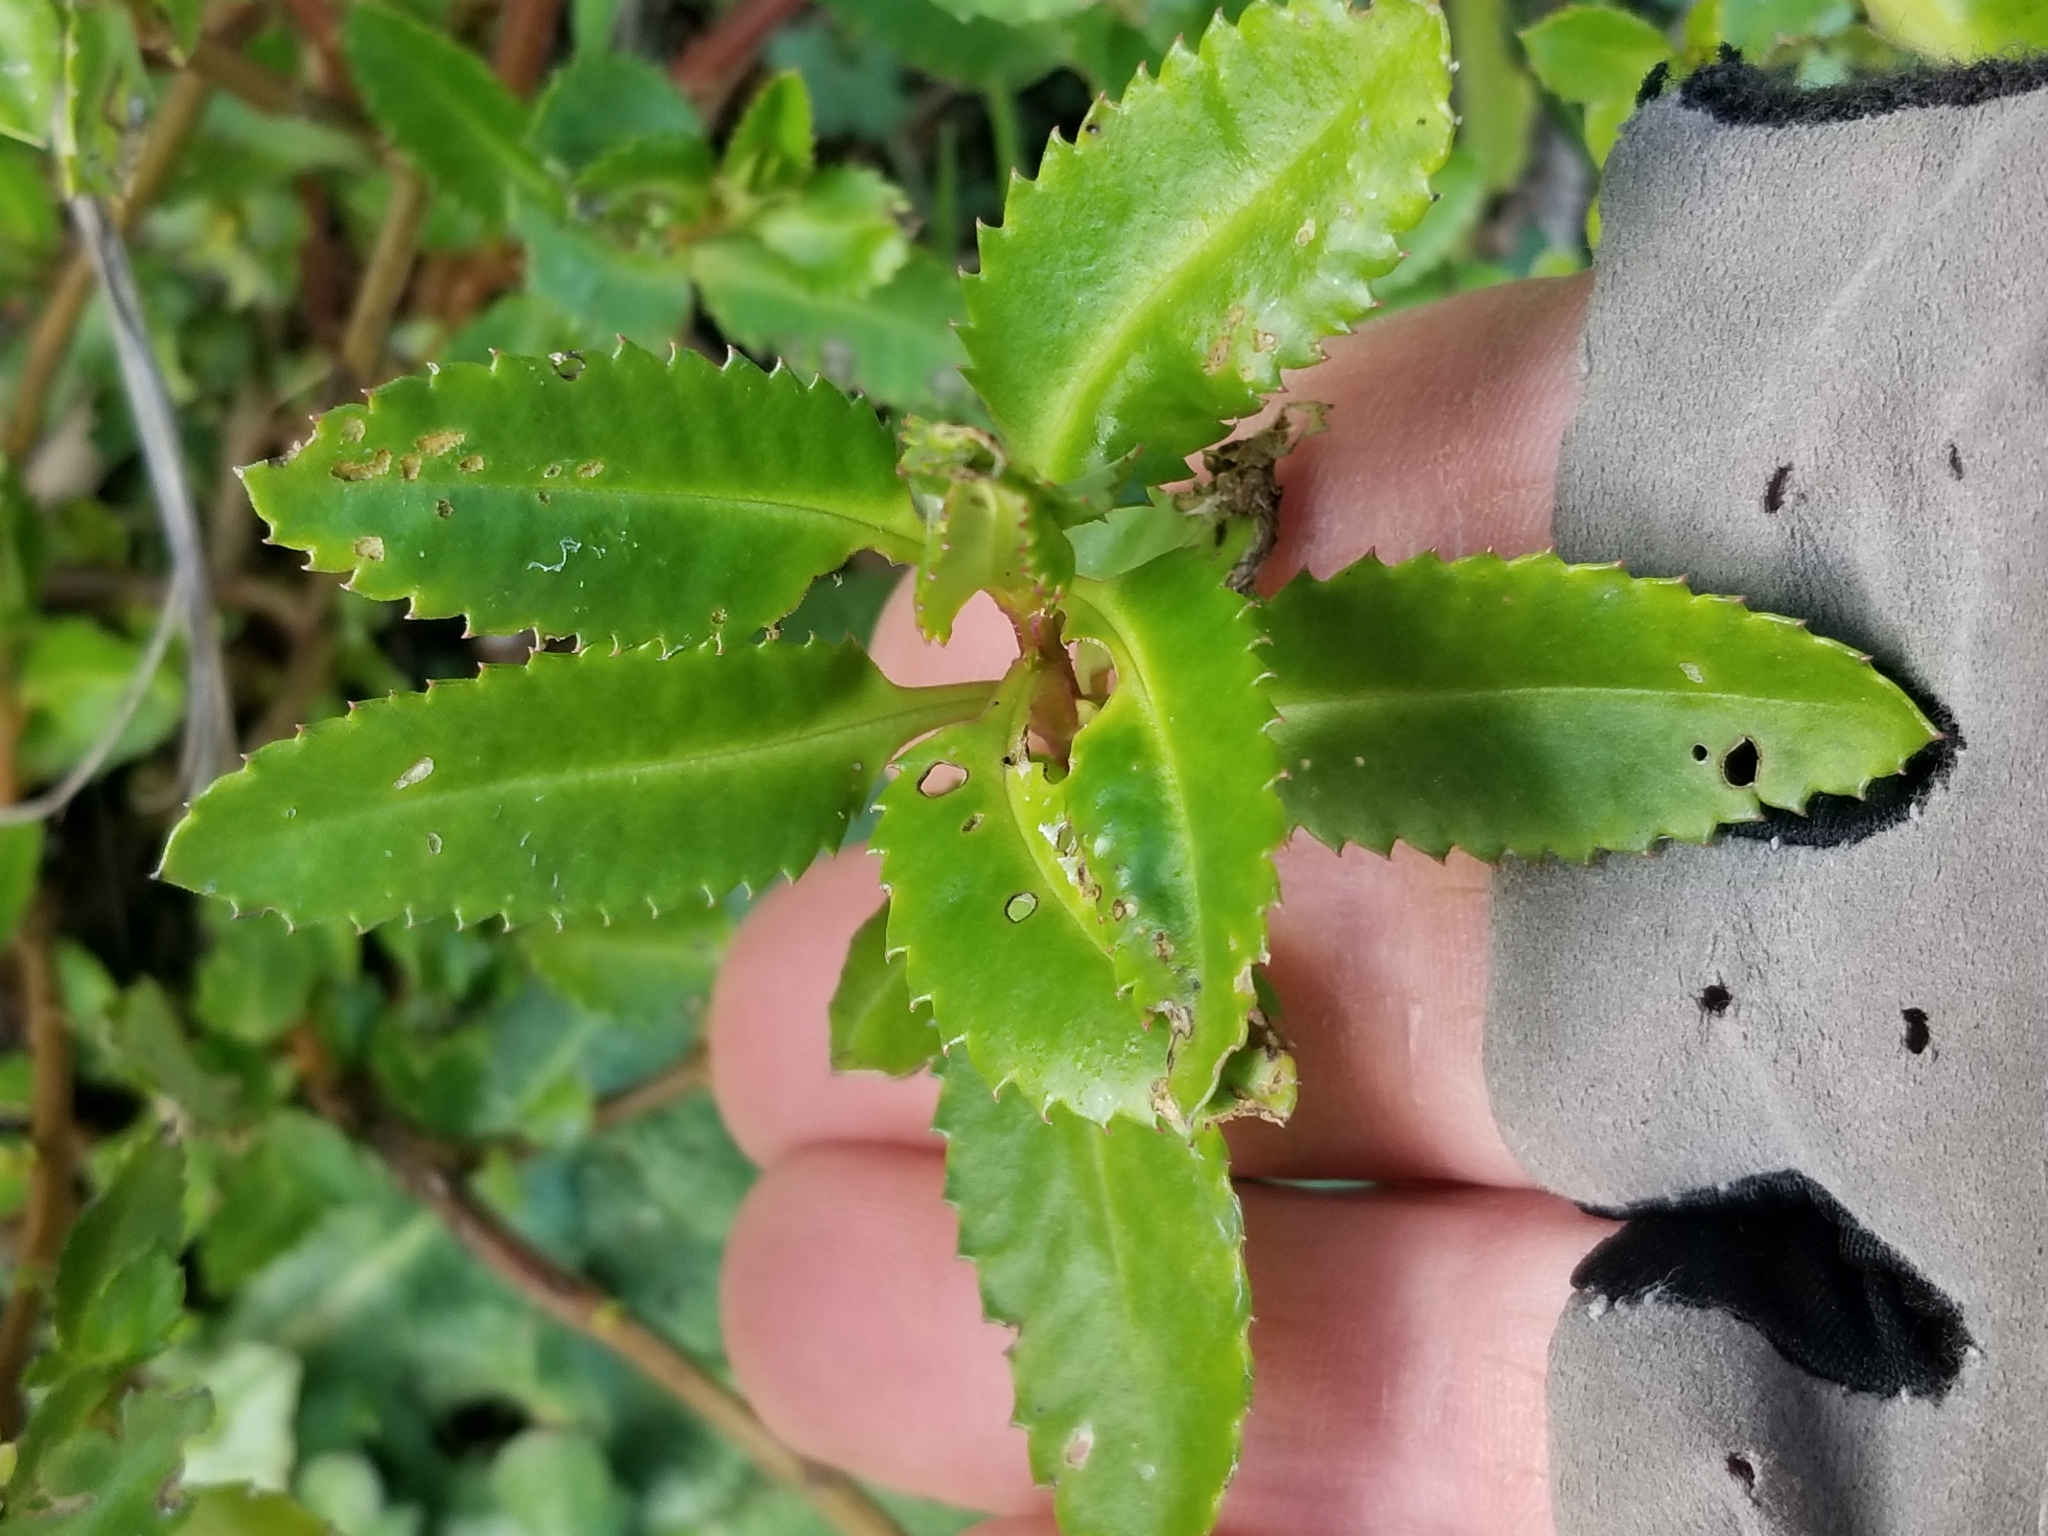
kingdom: Plantae
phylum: Tracheophyta
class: Magnoliopsida
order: Saxifragales
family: Haloragaceae
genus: Haloragis
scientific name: Haloragis erecta
